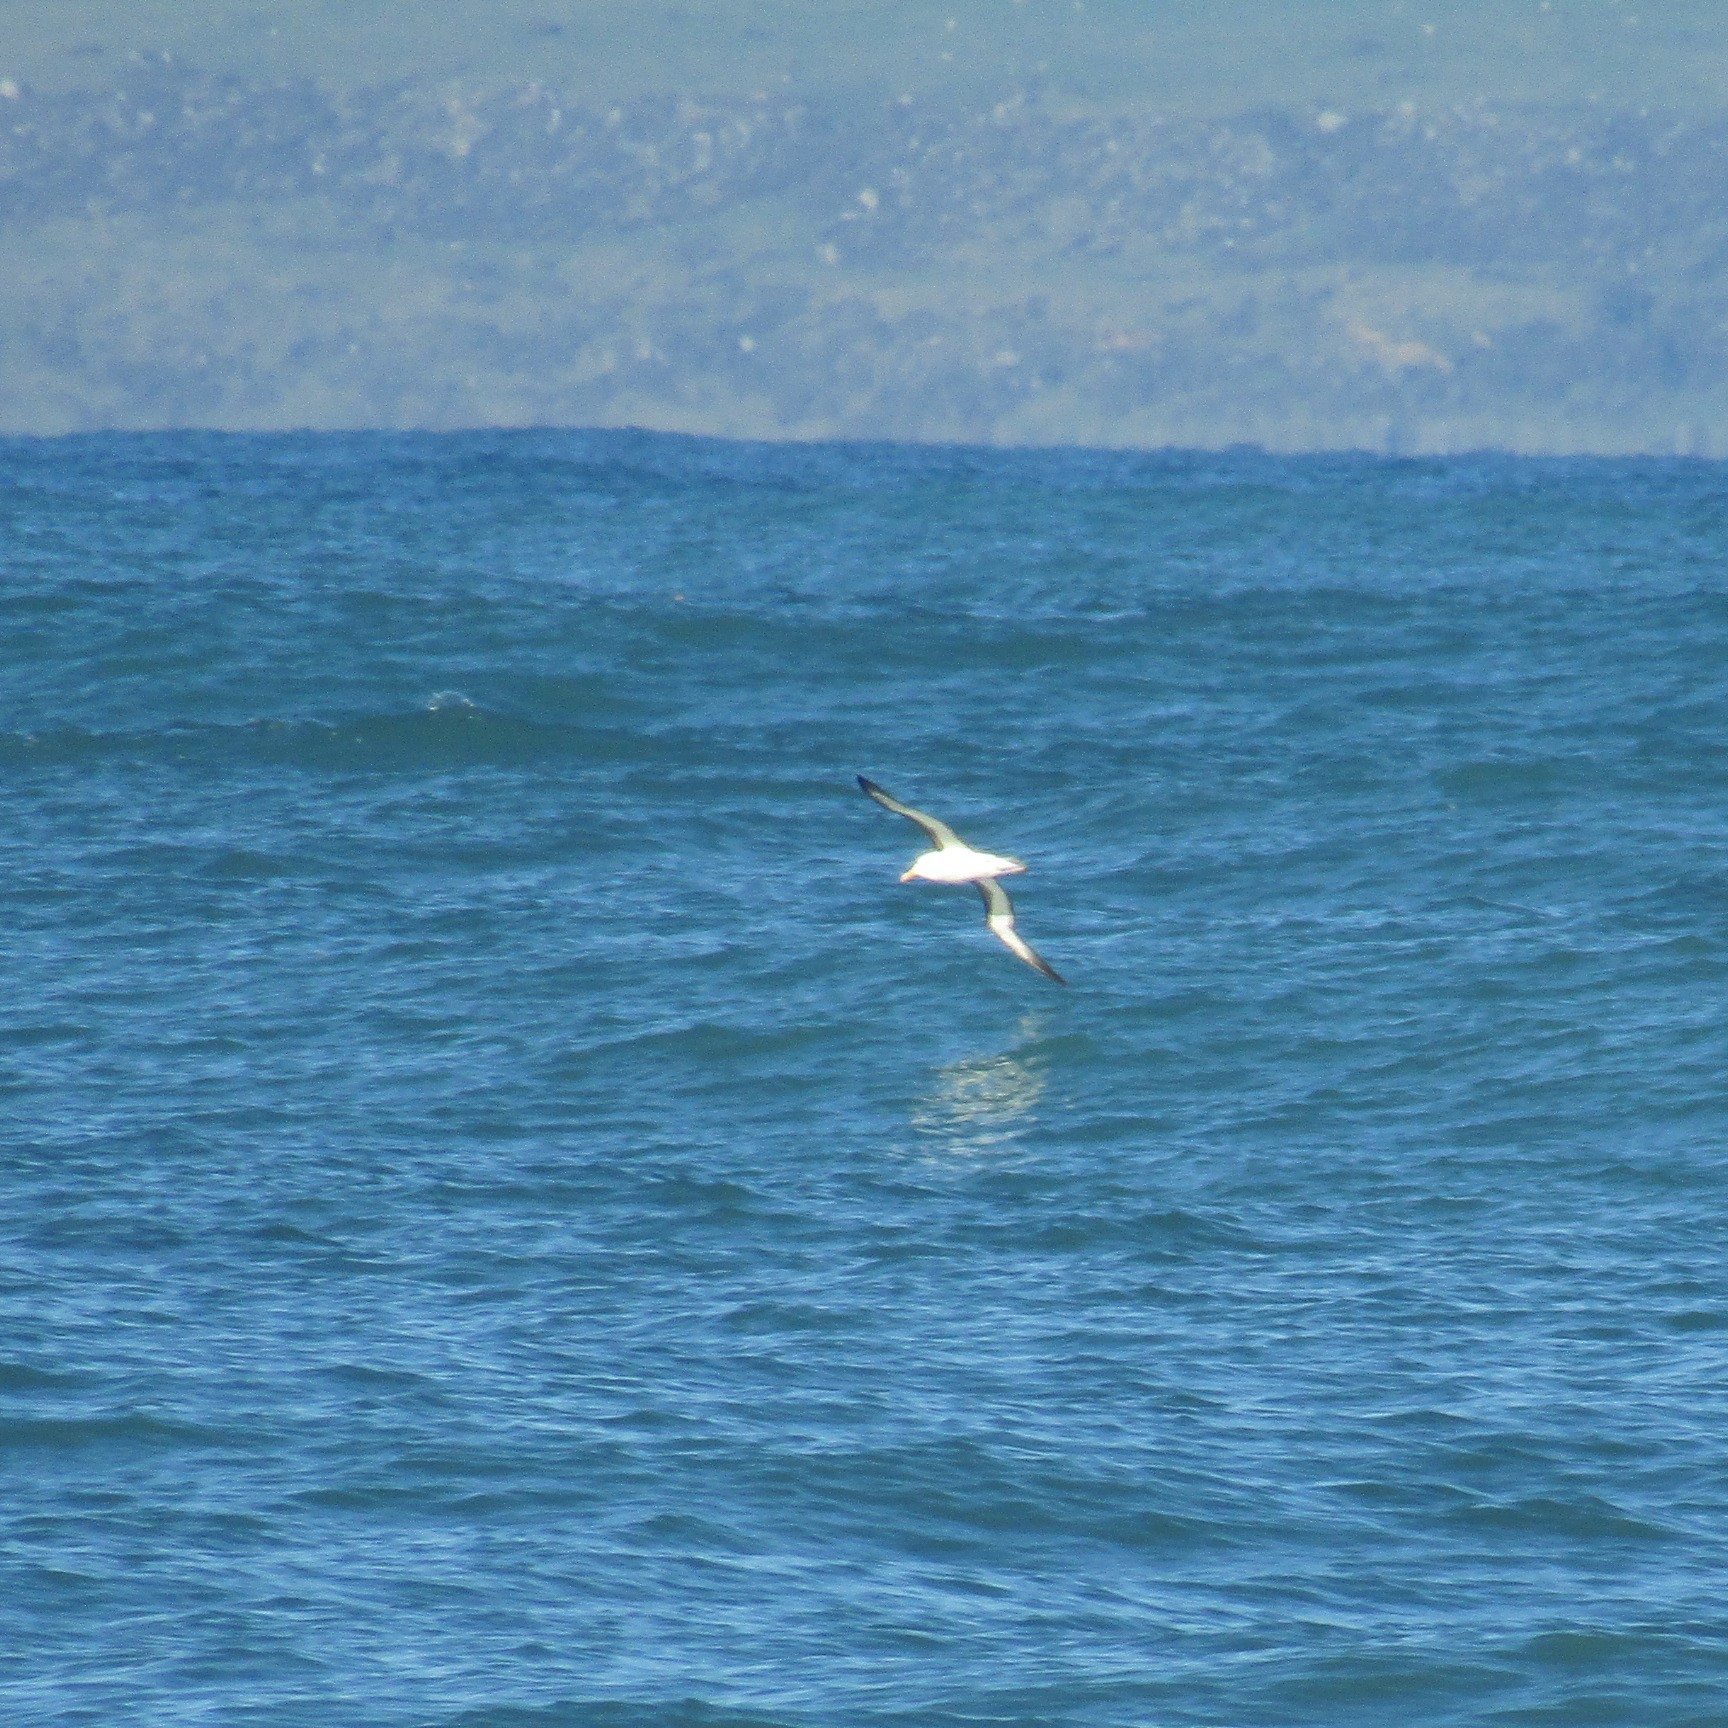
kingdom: Animalia
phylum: Chordata
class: Aves
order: Procellariiformes
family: Diomedeidae
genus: Thalassarche
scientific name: Thalassarche melanophris
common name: Black-browed albatross
